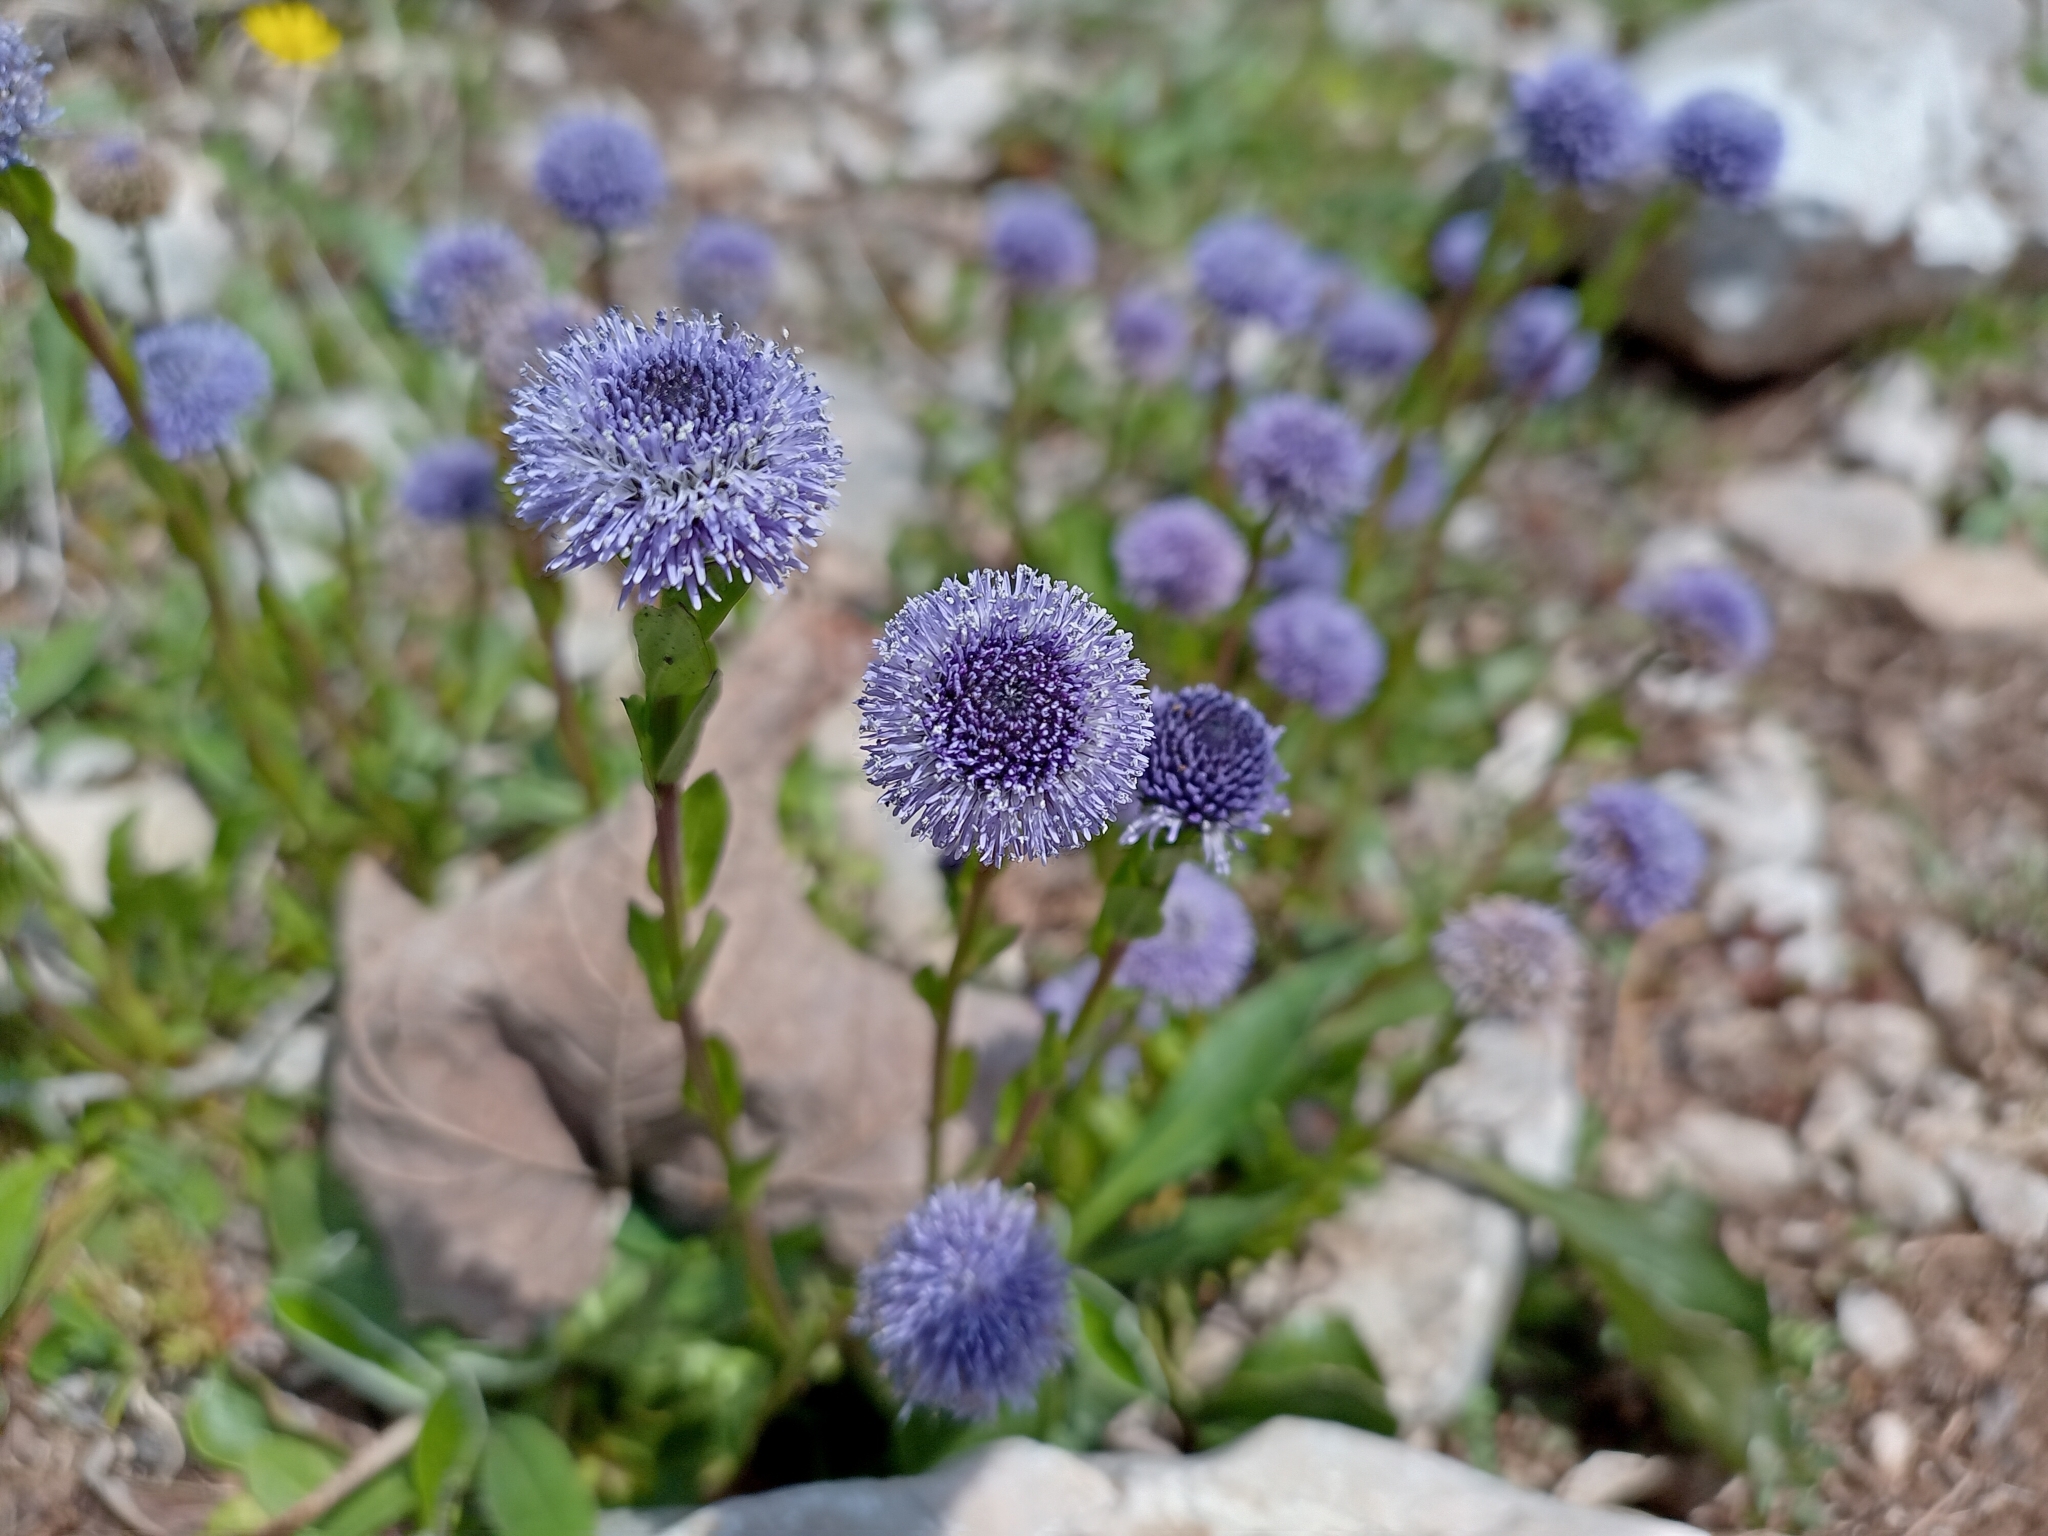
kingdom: Plantae
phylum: Tracheophyta
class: Magnoliopsida
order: Lamiales
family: Plantaginaceae
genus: Globularia
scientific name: Globularia bisnagarica
